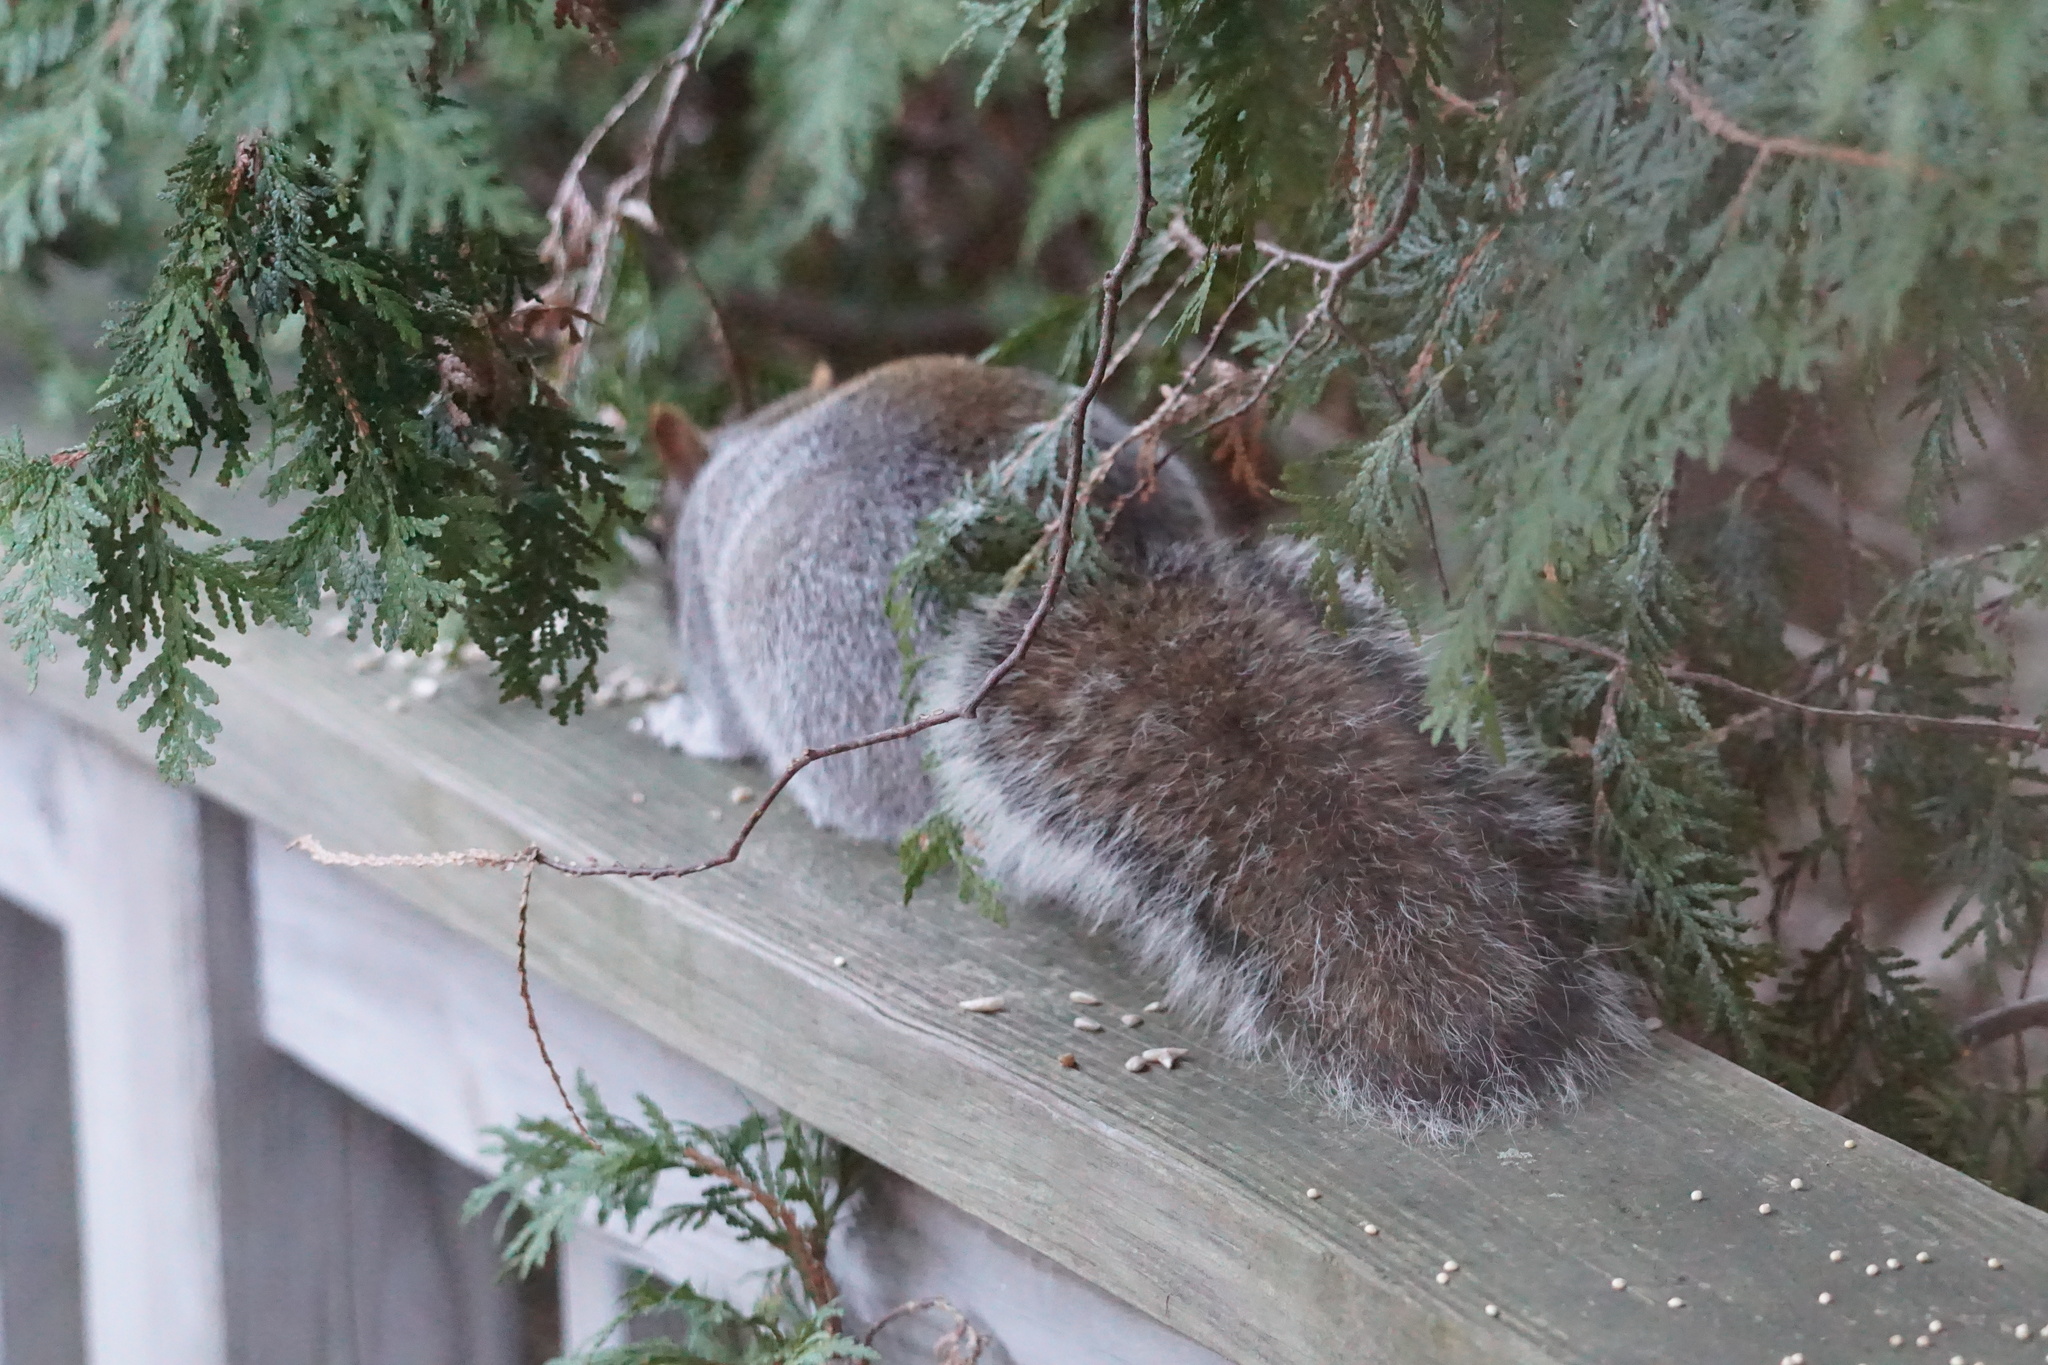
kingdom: Animalia
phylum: Chordata
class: Mammalia
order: Rodentia
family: Sciuridae
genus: Sciurus
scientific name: Sciurus carolinensis
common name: Eastern gray squirrel
